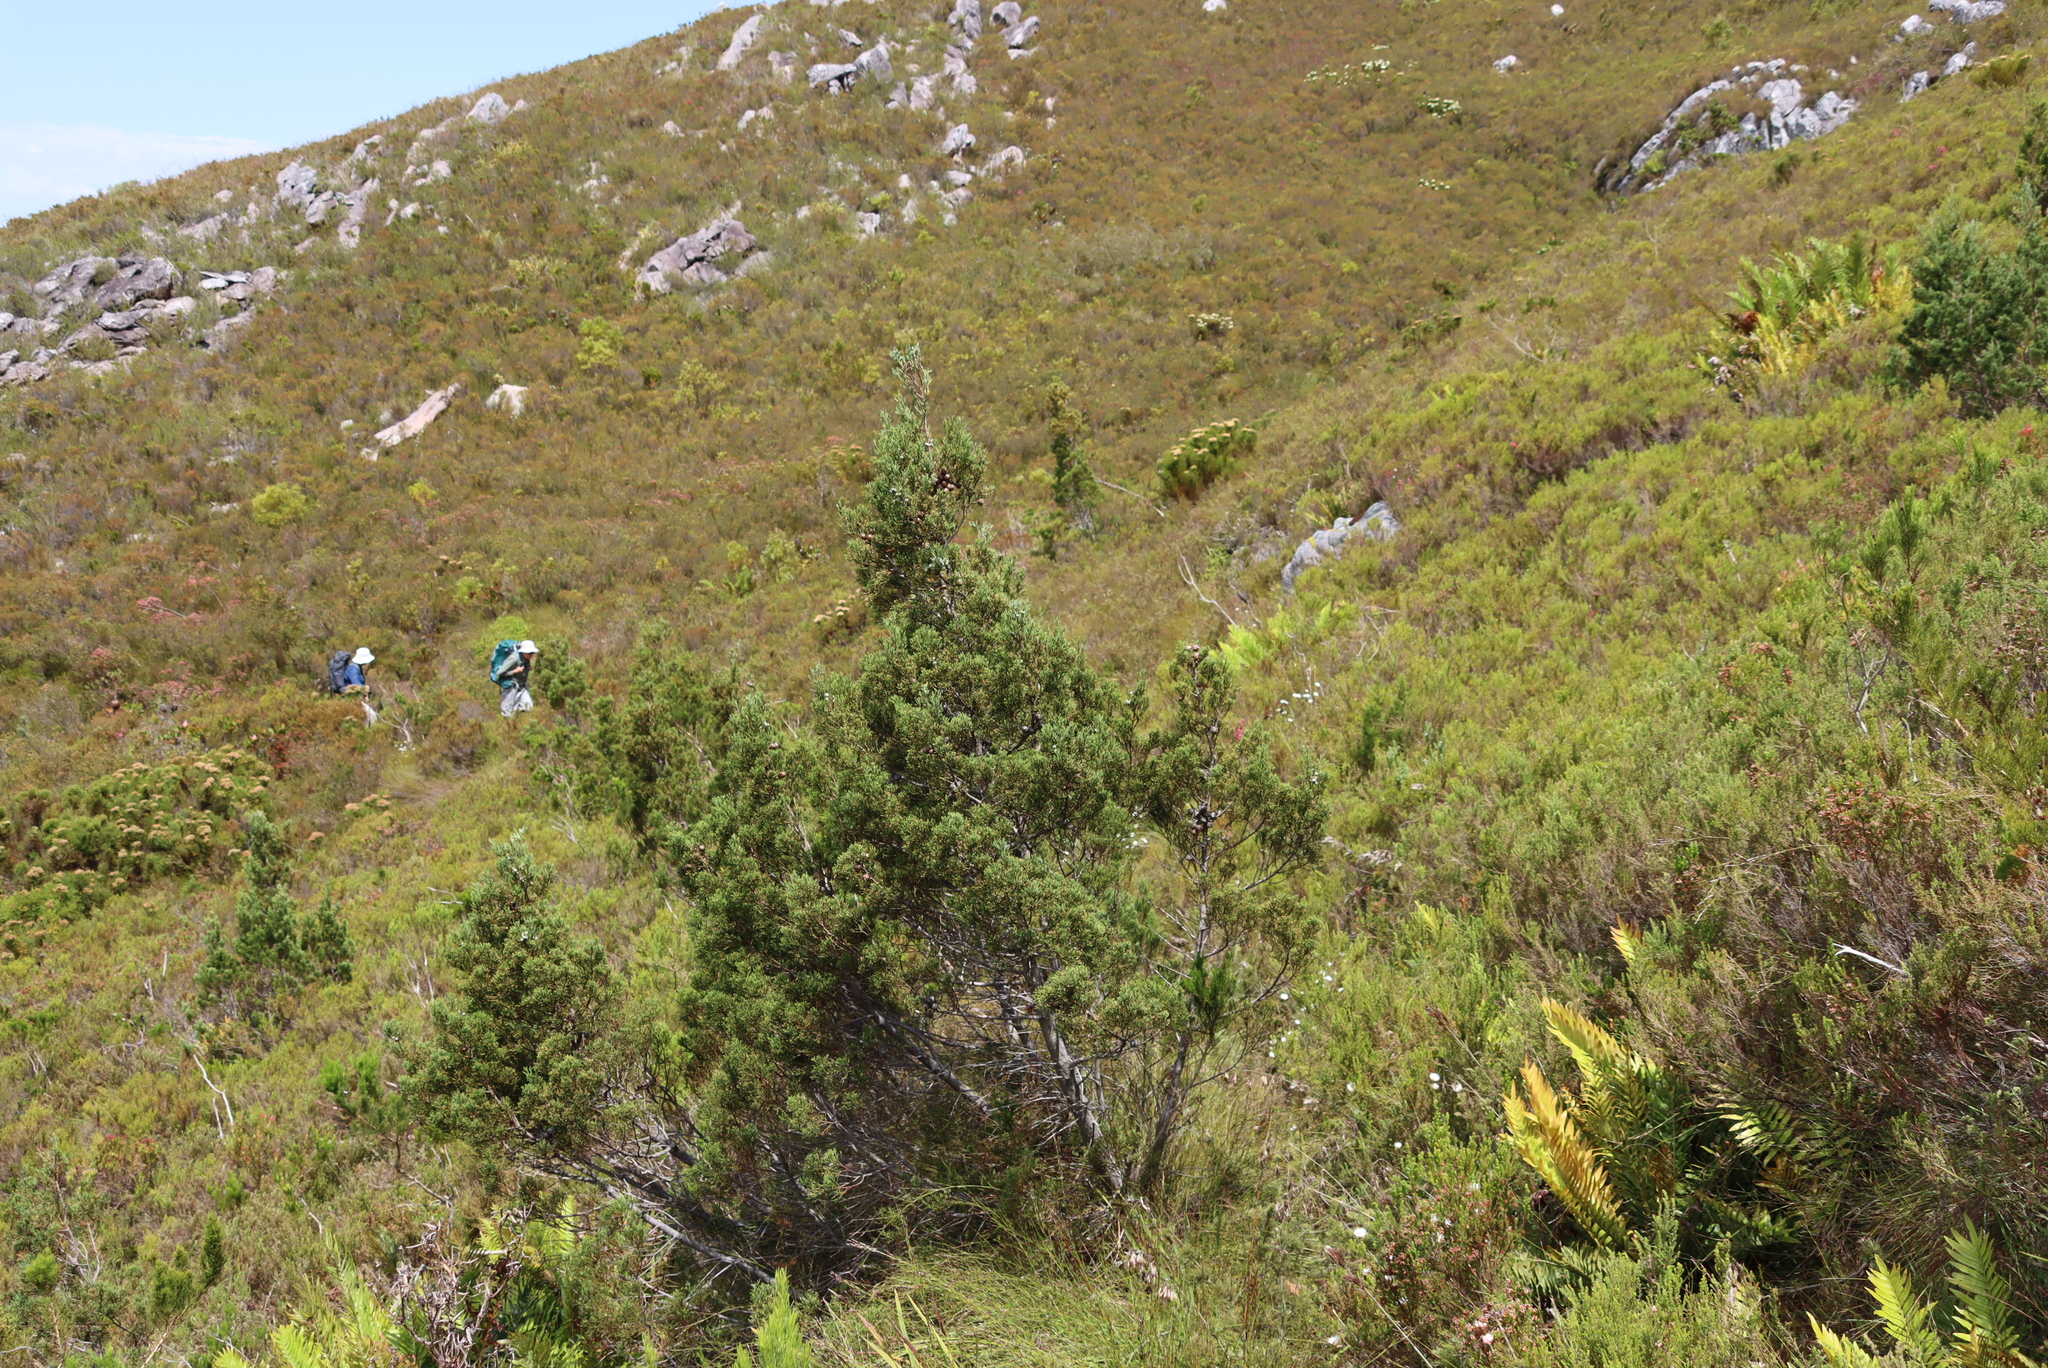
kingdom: Plantae
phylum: Tracheophyta
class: Pinopsida
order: Pinales
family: Cupressaceae
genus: Widdringtonia
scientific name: Widdringtonia nodiflora
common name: Cape cypress
